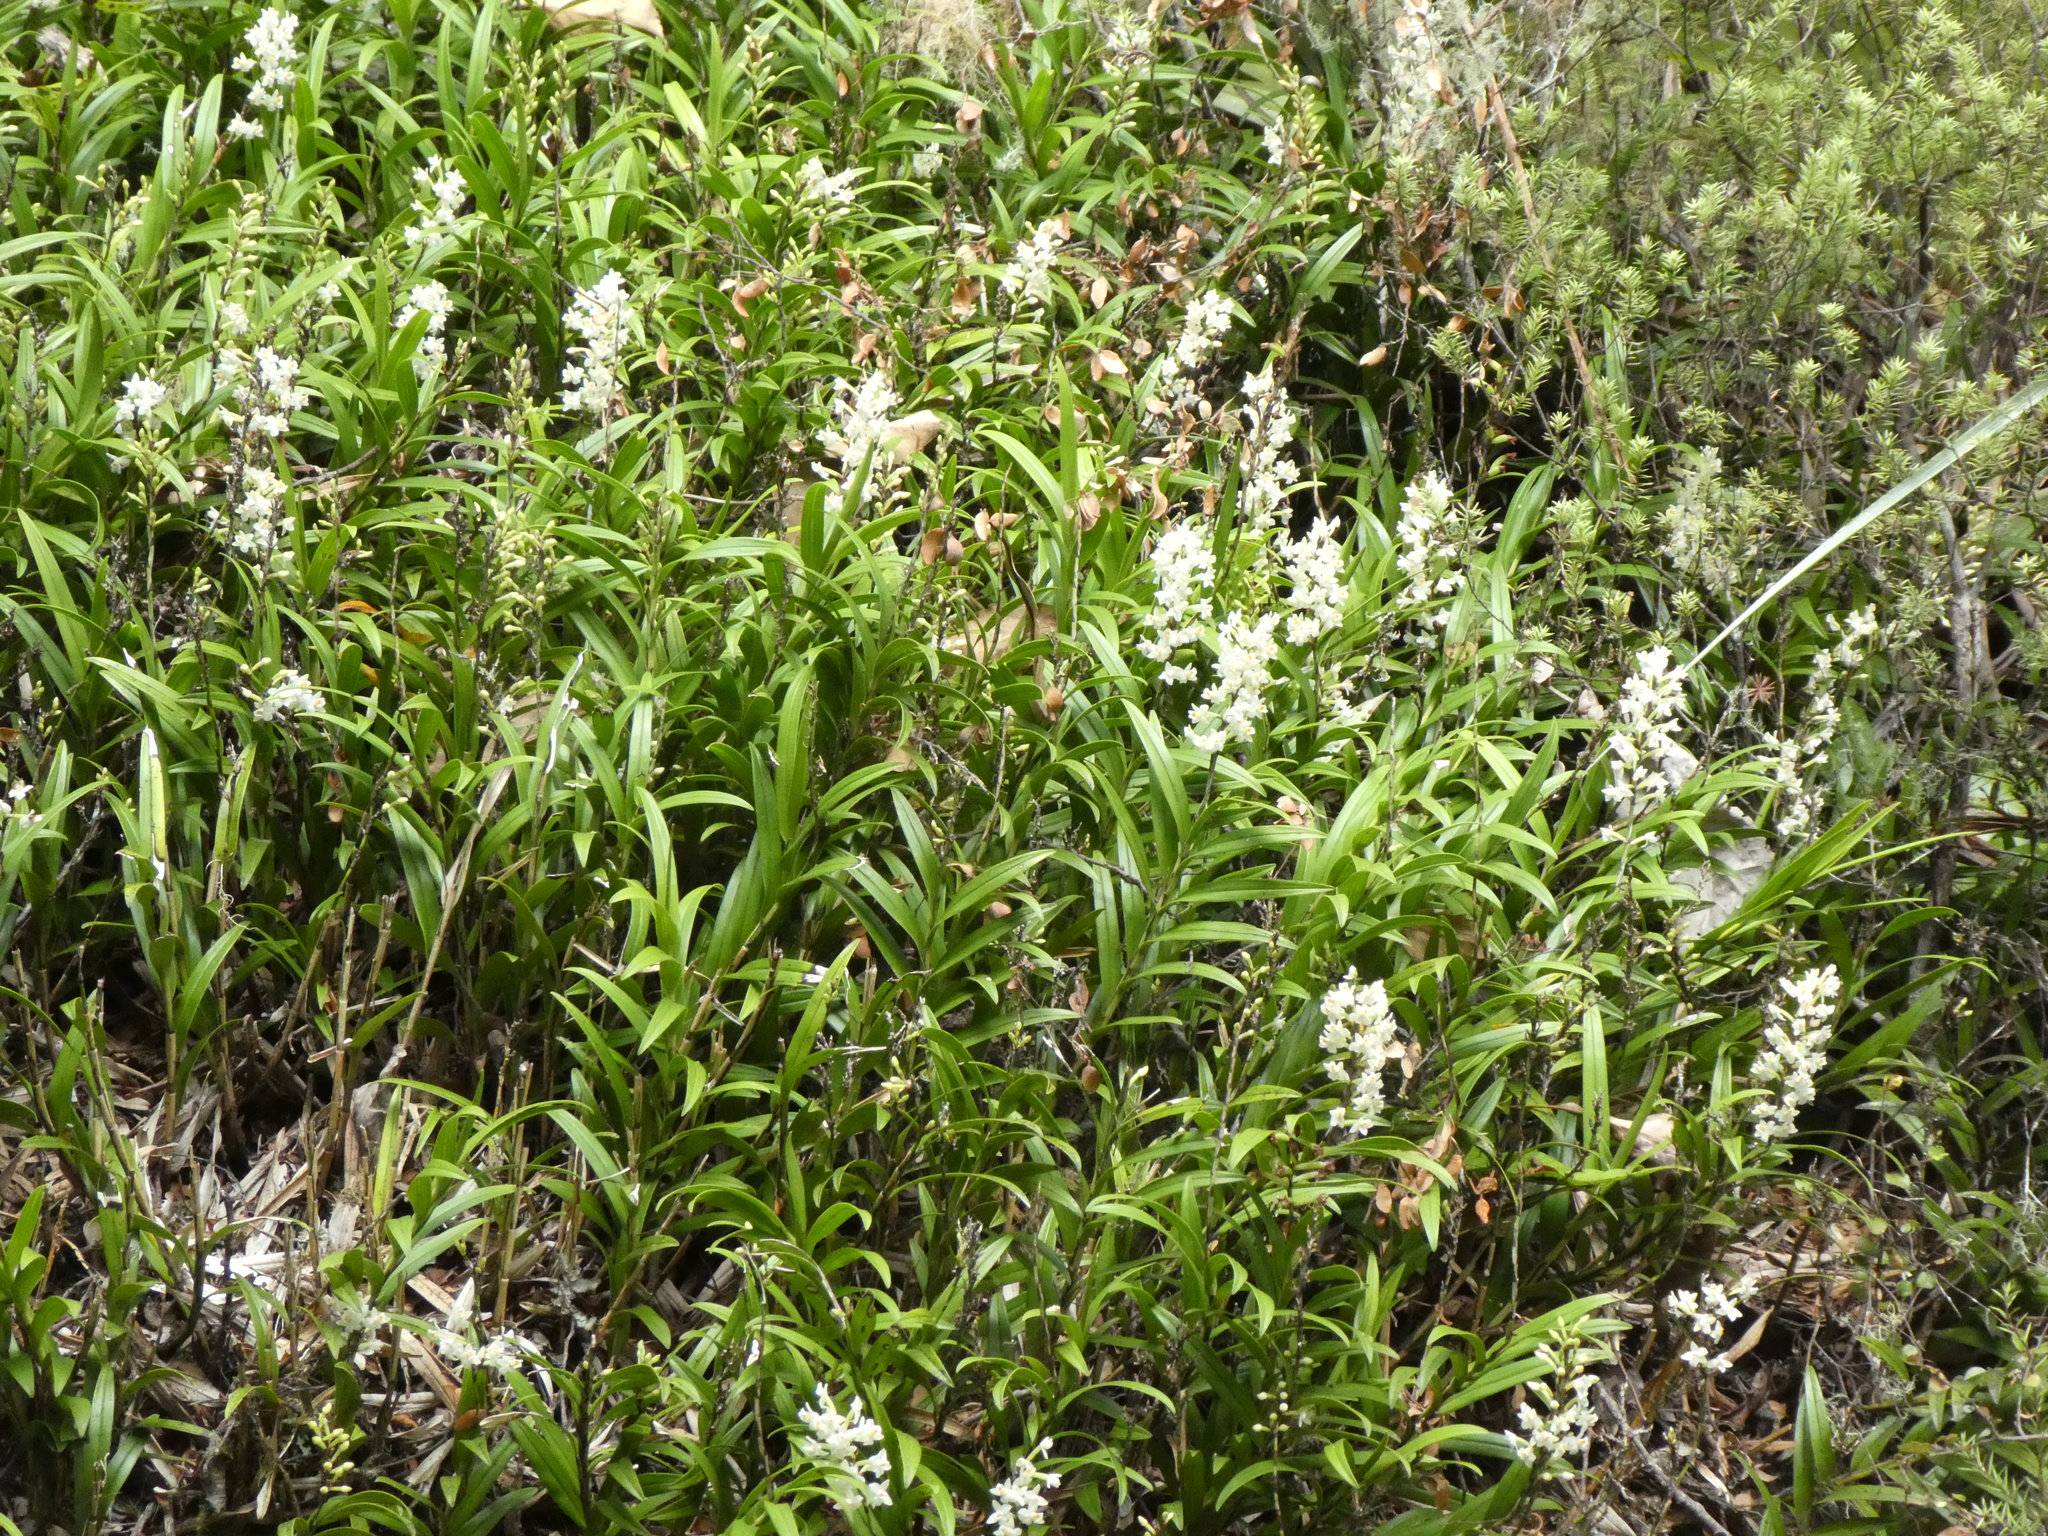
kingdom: Plantae
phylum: Tracheophyta
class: Liliopsida
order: Asparagales
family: Orchidaceae
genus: Earina
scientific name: Earina autumnalis
